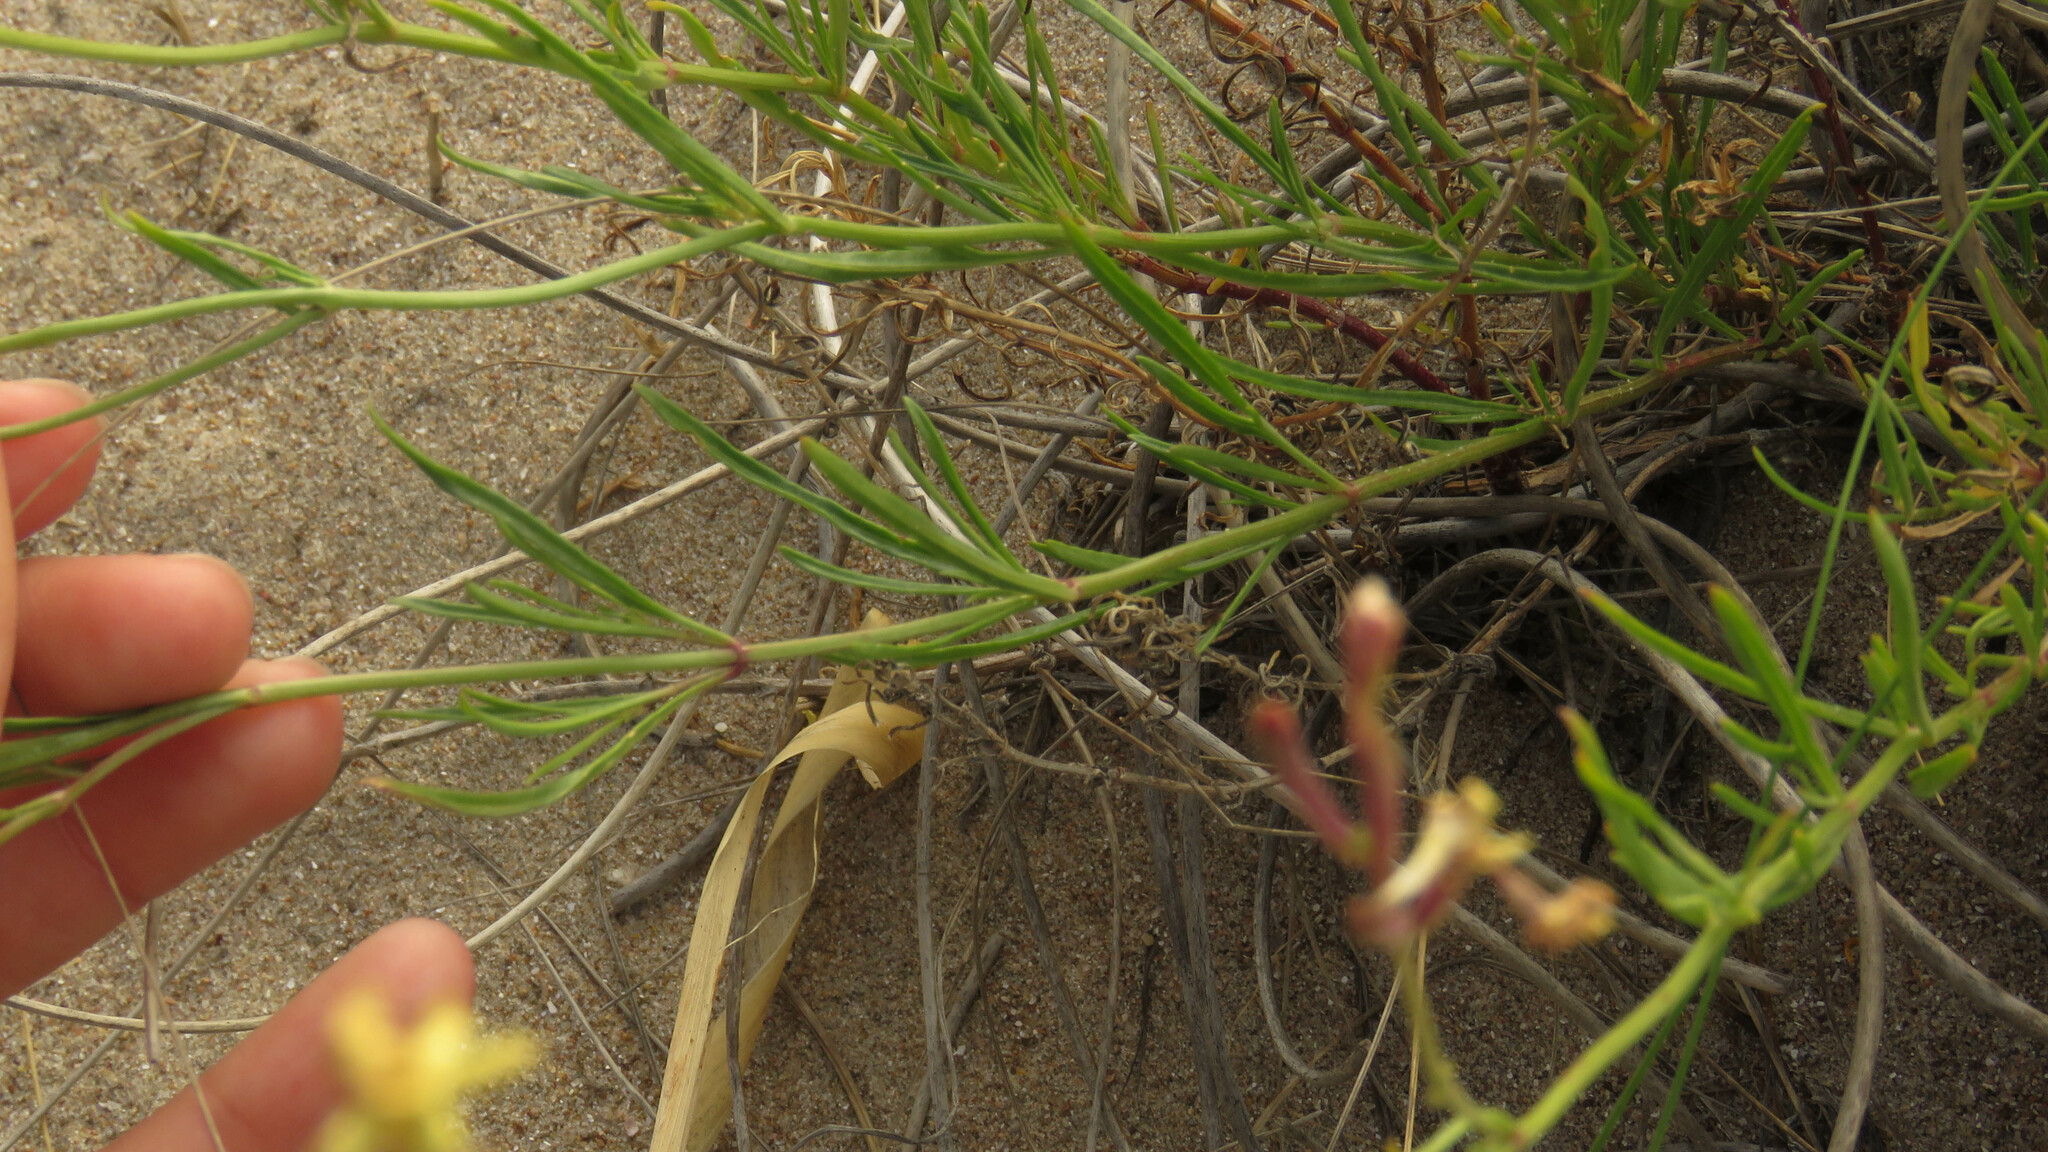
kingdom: Plantae
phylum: Tracheophyta
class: Magnoliopsida
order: Lamiales
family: Verbenaceae
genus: Verbena
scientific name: Verbena flava
